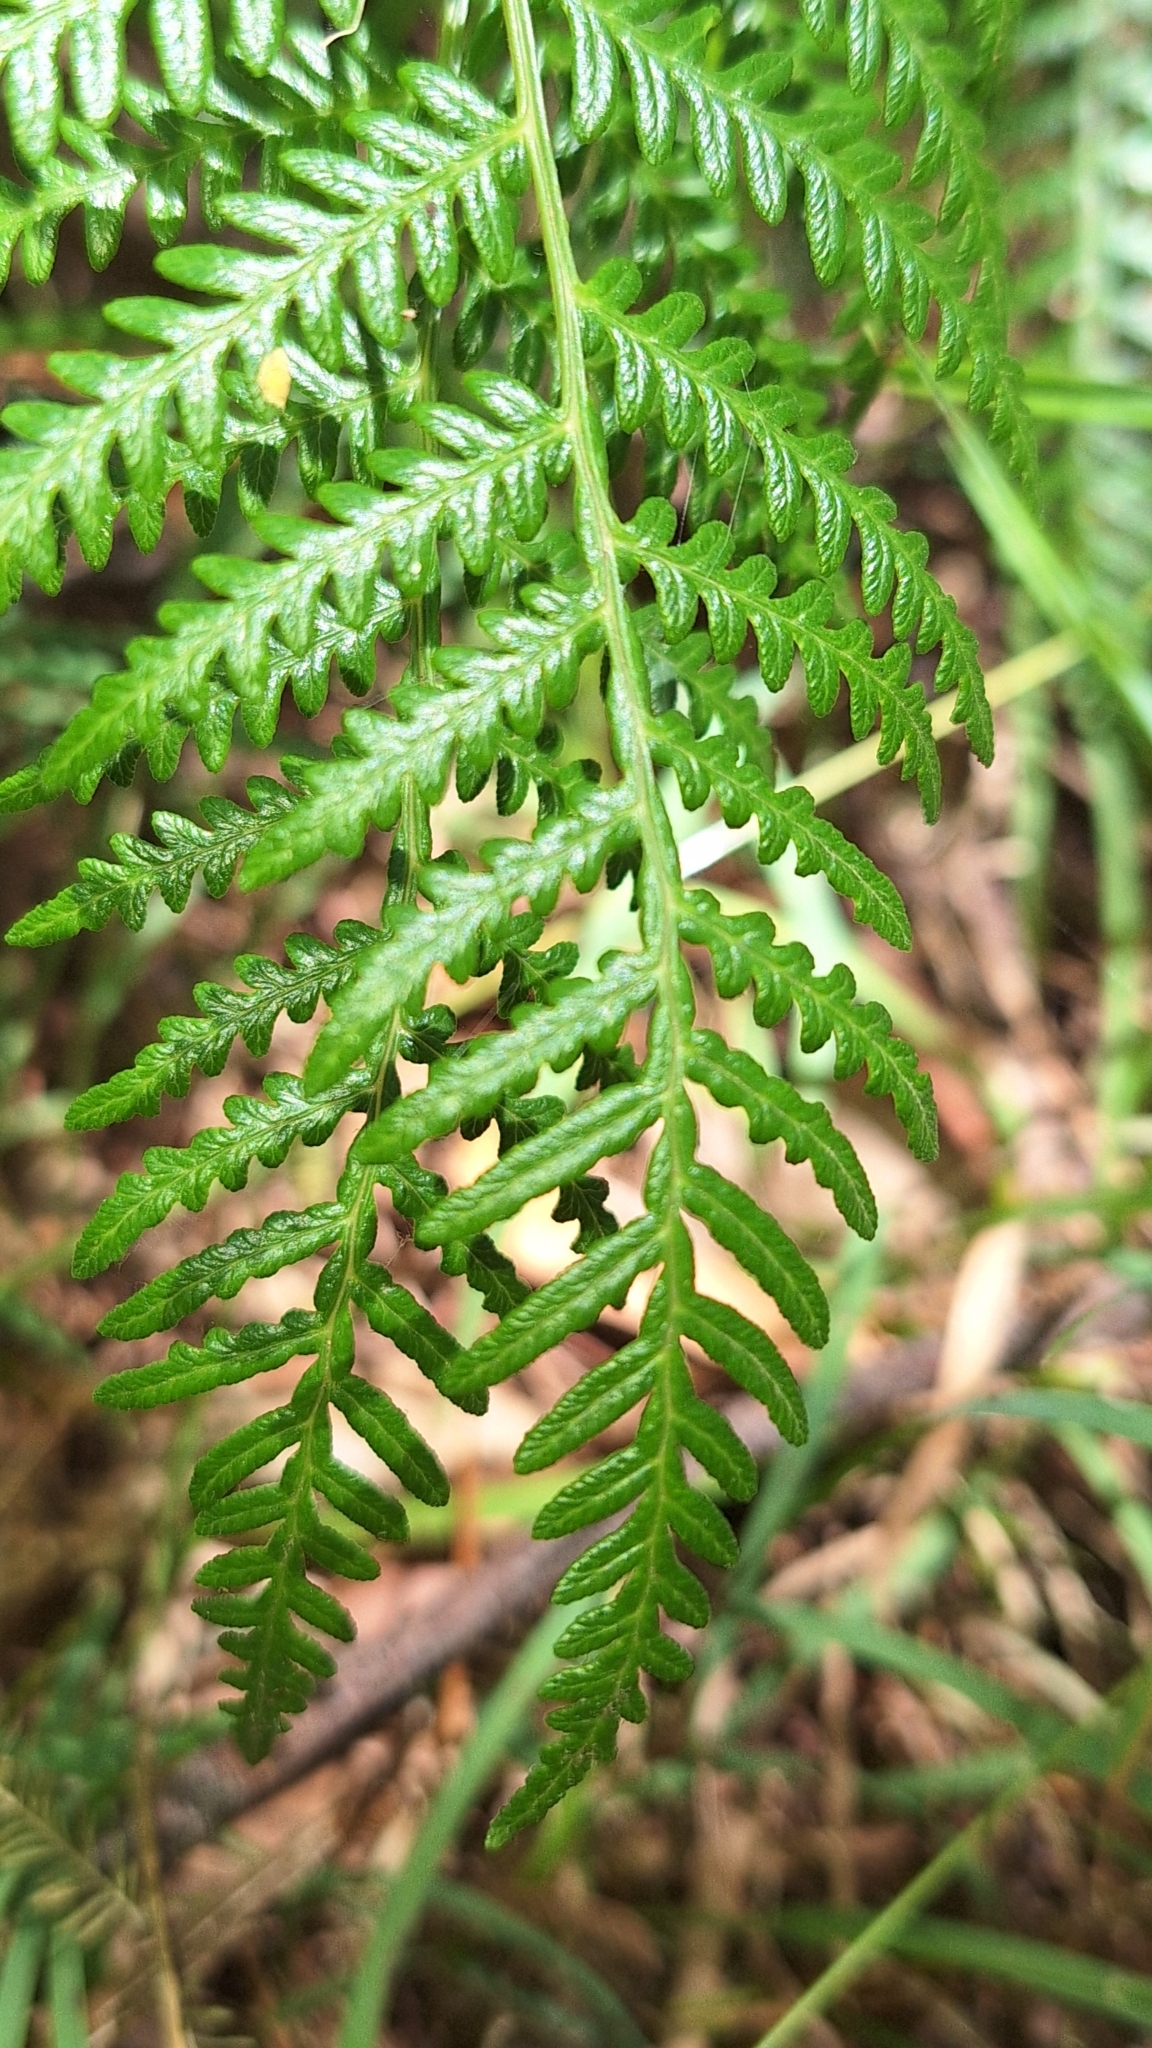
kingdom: Plantae
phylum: Tracheophyta
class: Polypodiopsida
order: Polypodiales
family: Dennstaedtiaceae
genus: Pteridium
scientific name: Pteridium esculentum
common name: Bracken fern
